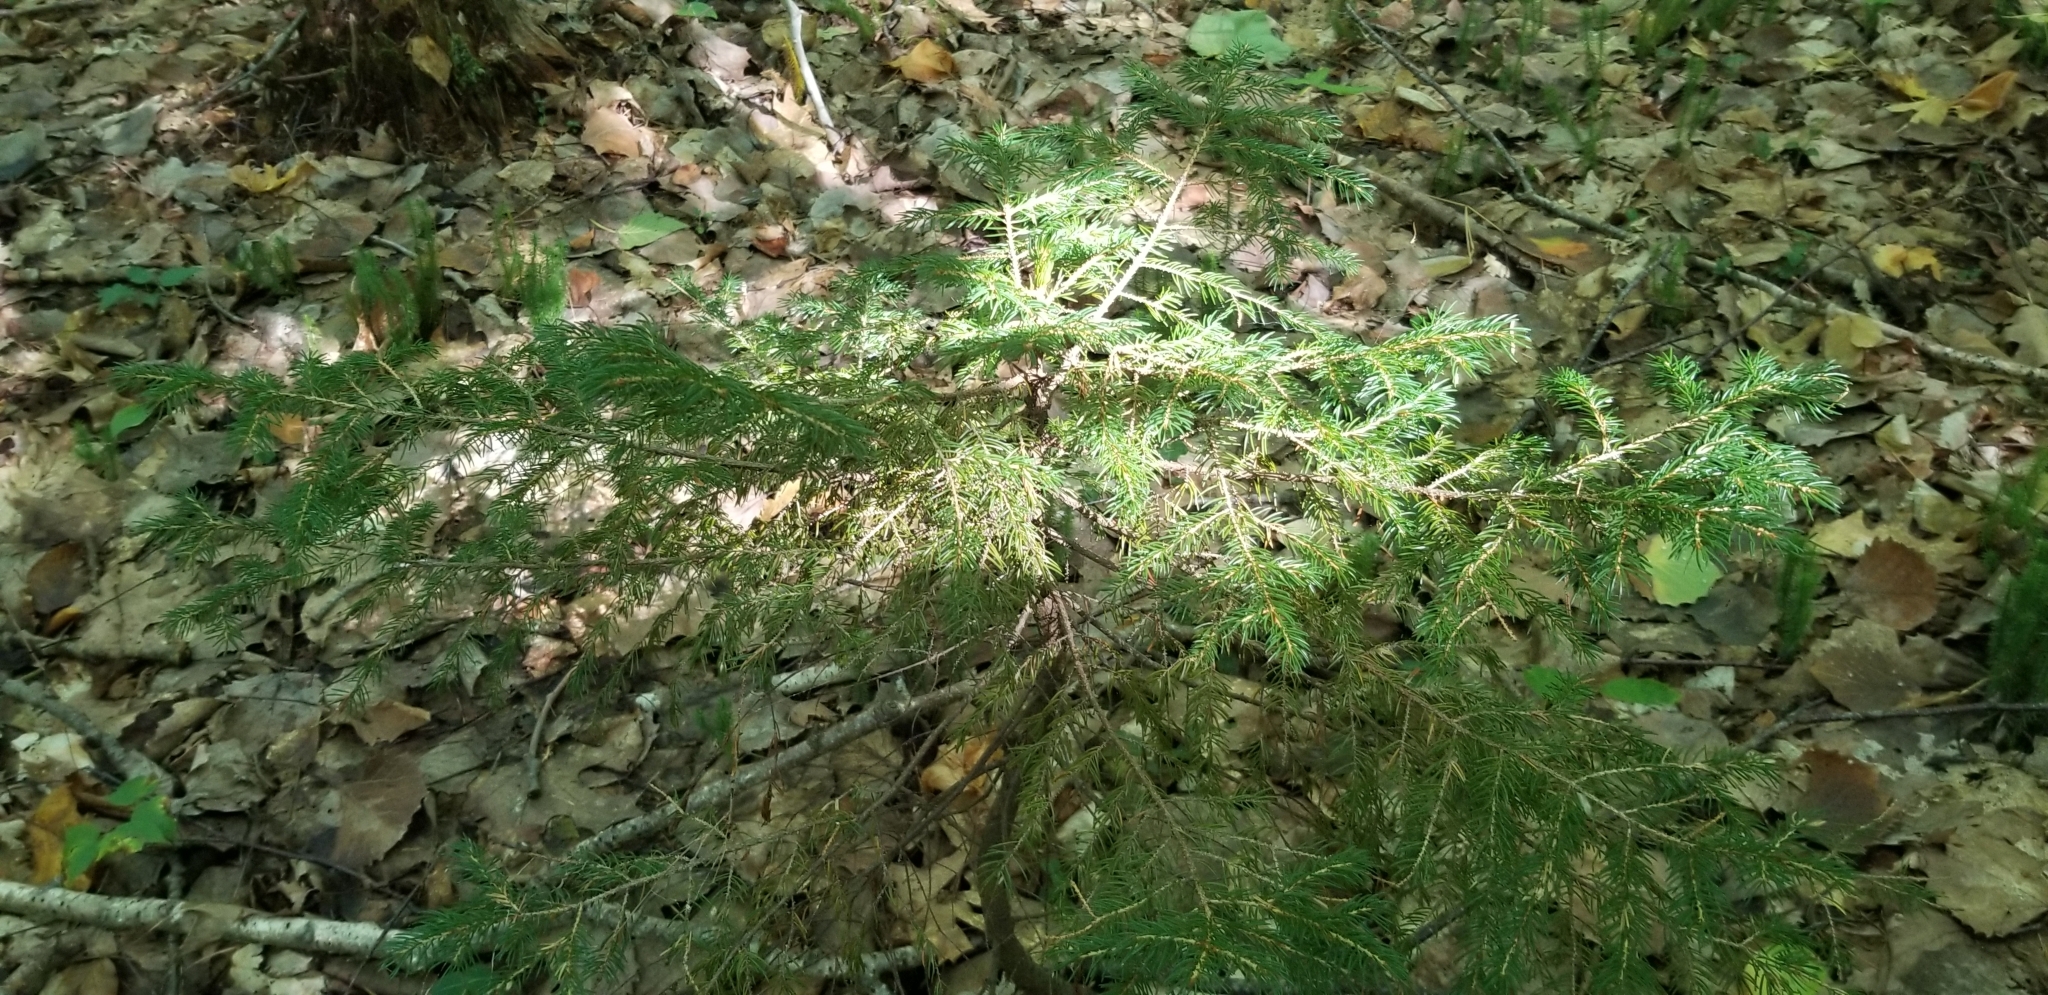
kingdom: Plantae
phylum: Tracheophyta
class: Pinopsida
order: Pinales
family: Pinaceae
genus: Picea
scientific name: Picea rubens
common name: Red spruce
